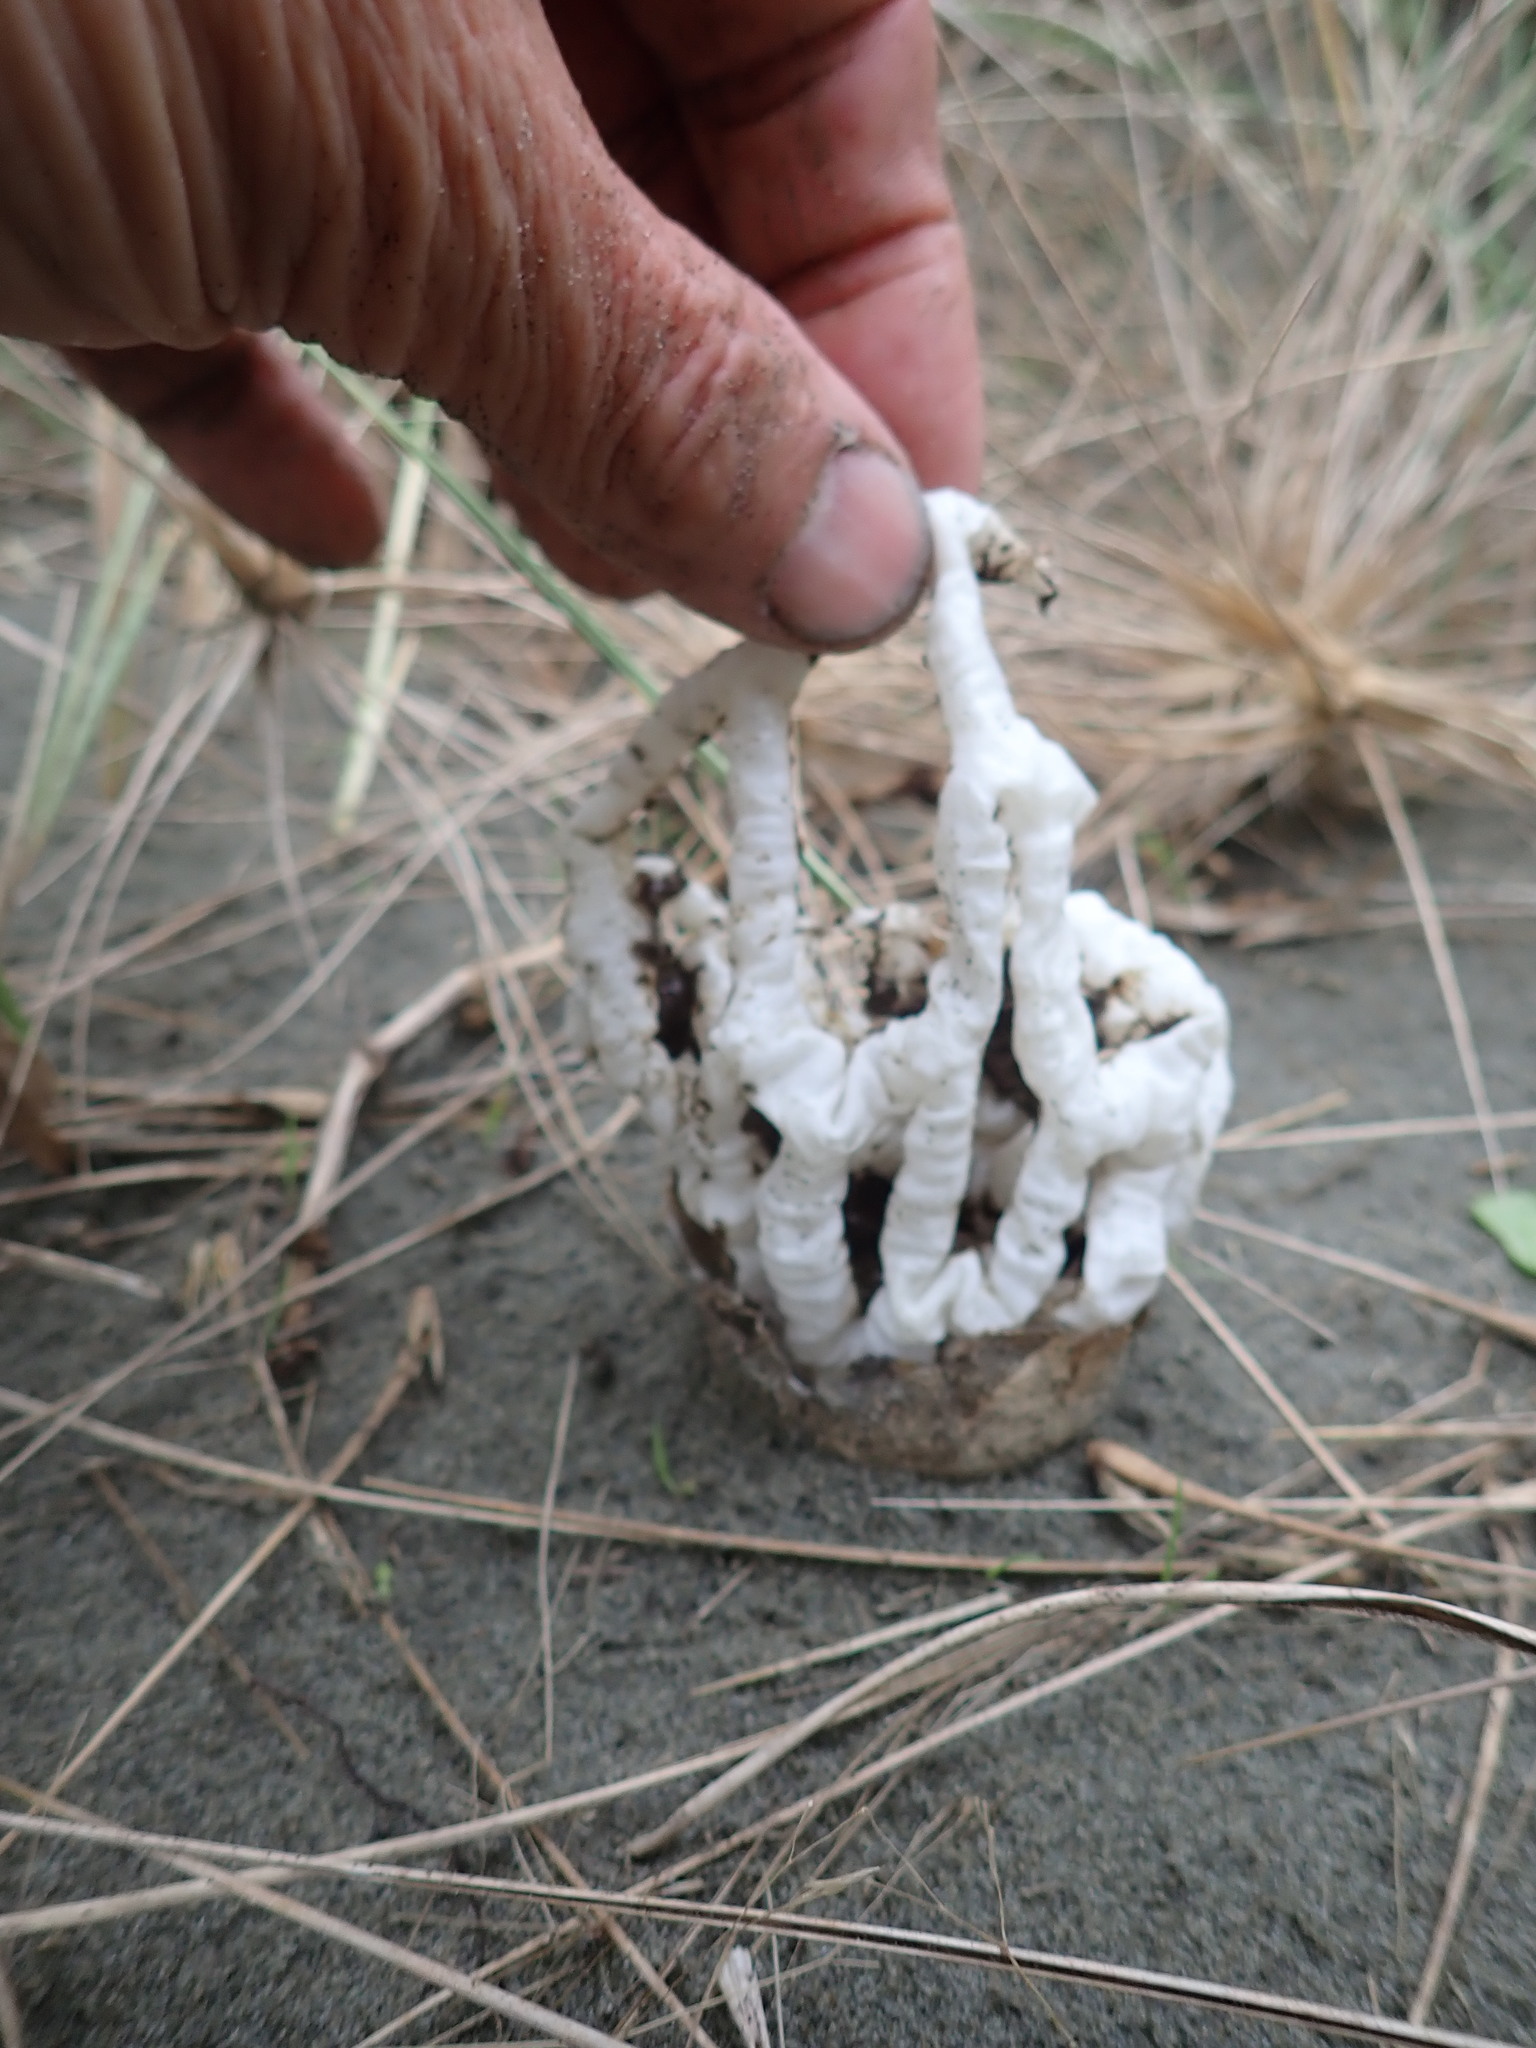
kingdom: Fungi
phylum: Basidiomycota
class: Agaricomycetes
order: Phallales
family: Phallaceae
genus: Ileodictyon
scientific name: Ileodictyon cibarium
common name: Basket fungus
